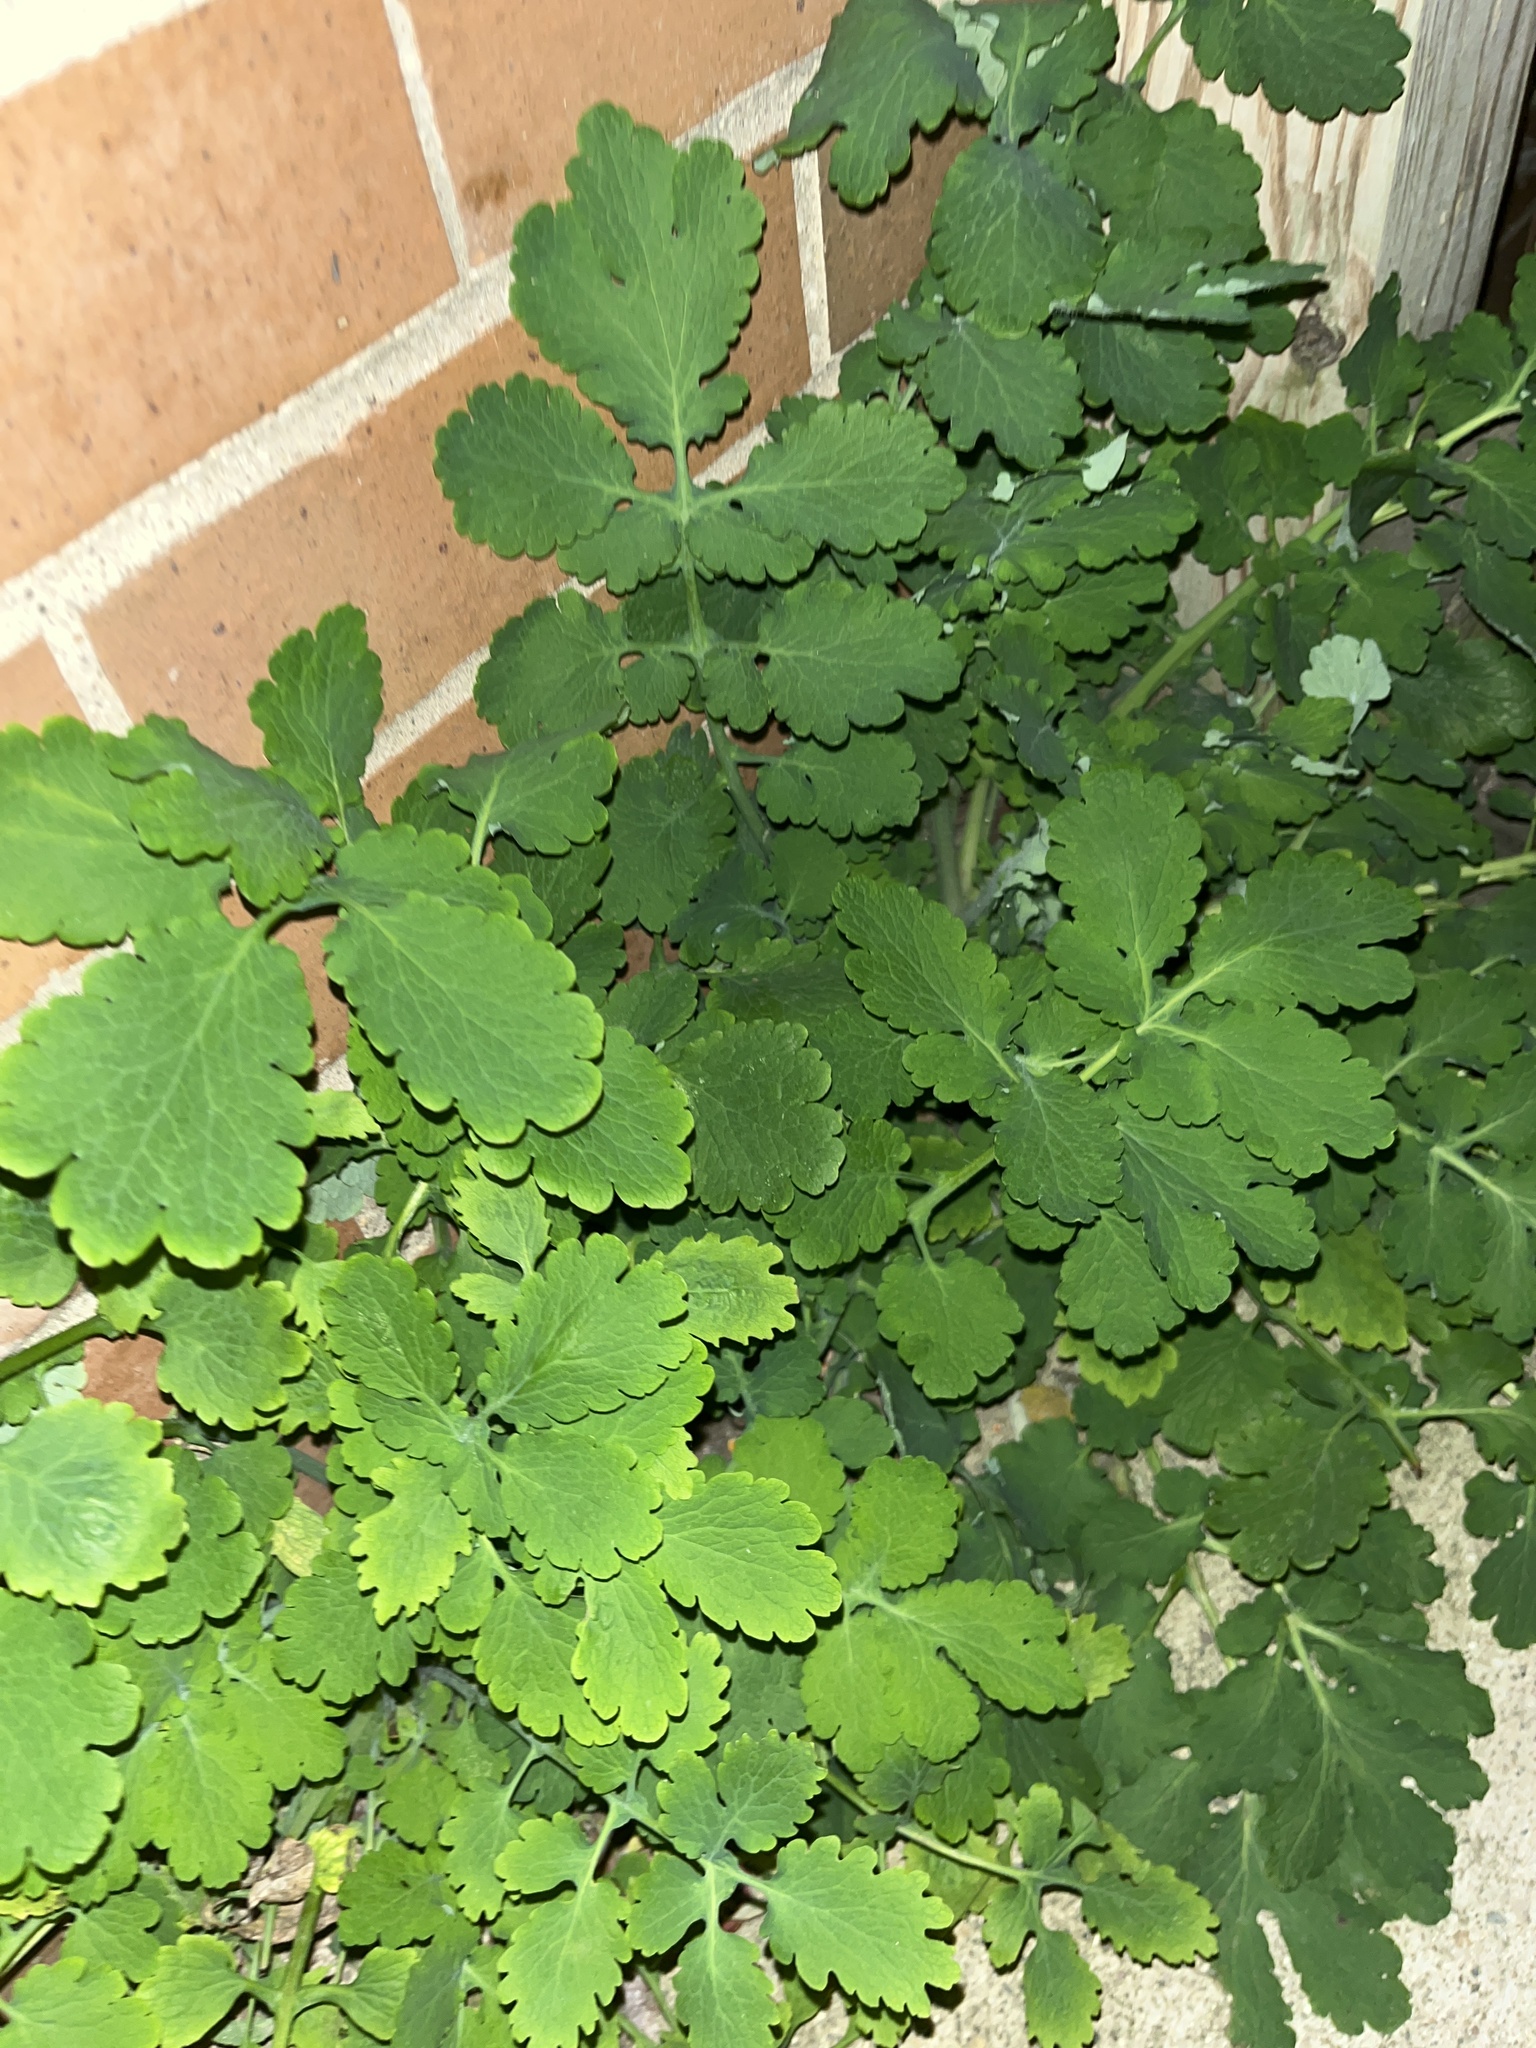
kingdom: Plantae
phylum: Tracheophyta
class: Magnoliopsida
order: Ranunculales
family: Papaveraceae
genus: Chelidonium
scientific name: Chelidonium majus
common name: Greater celandine
